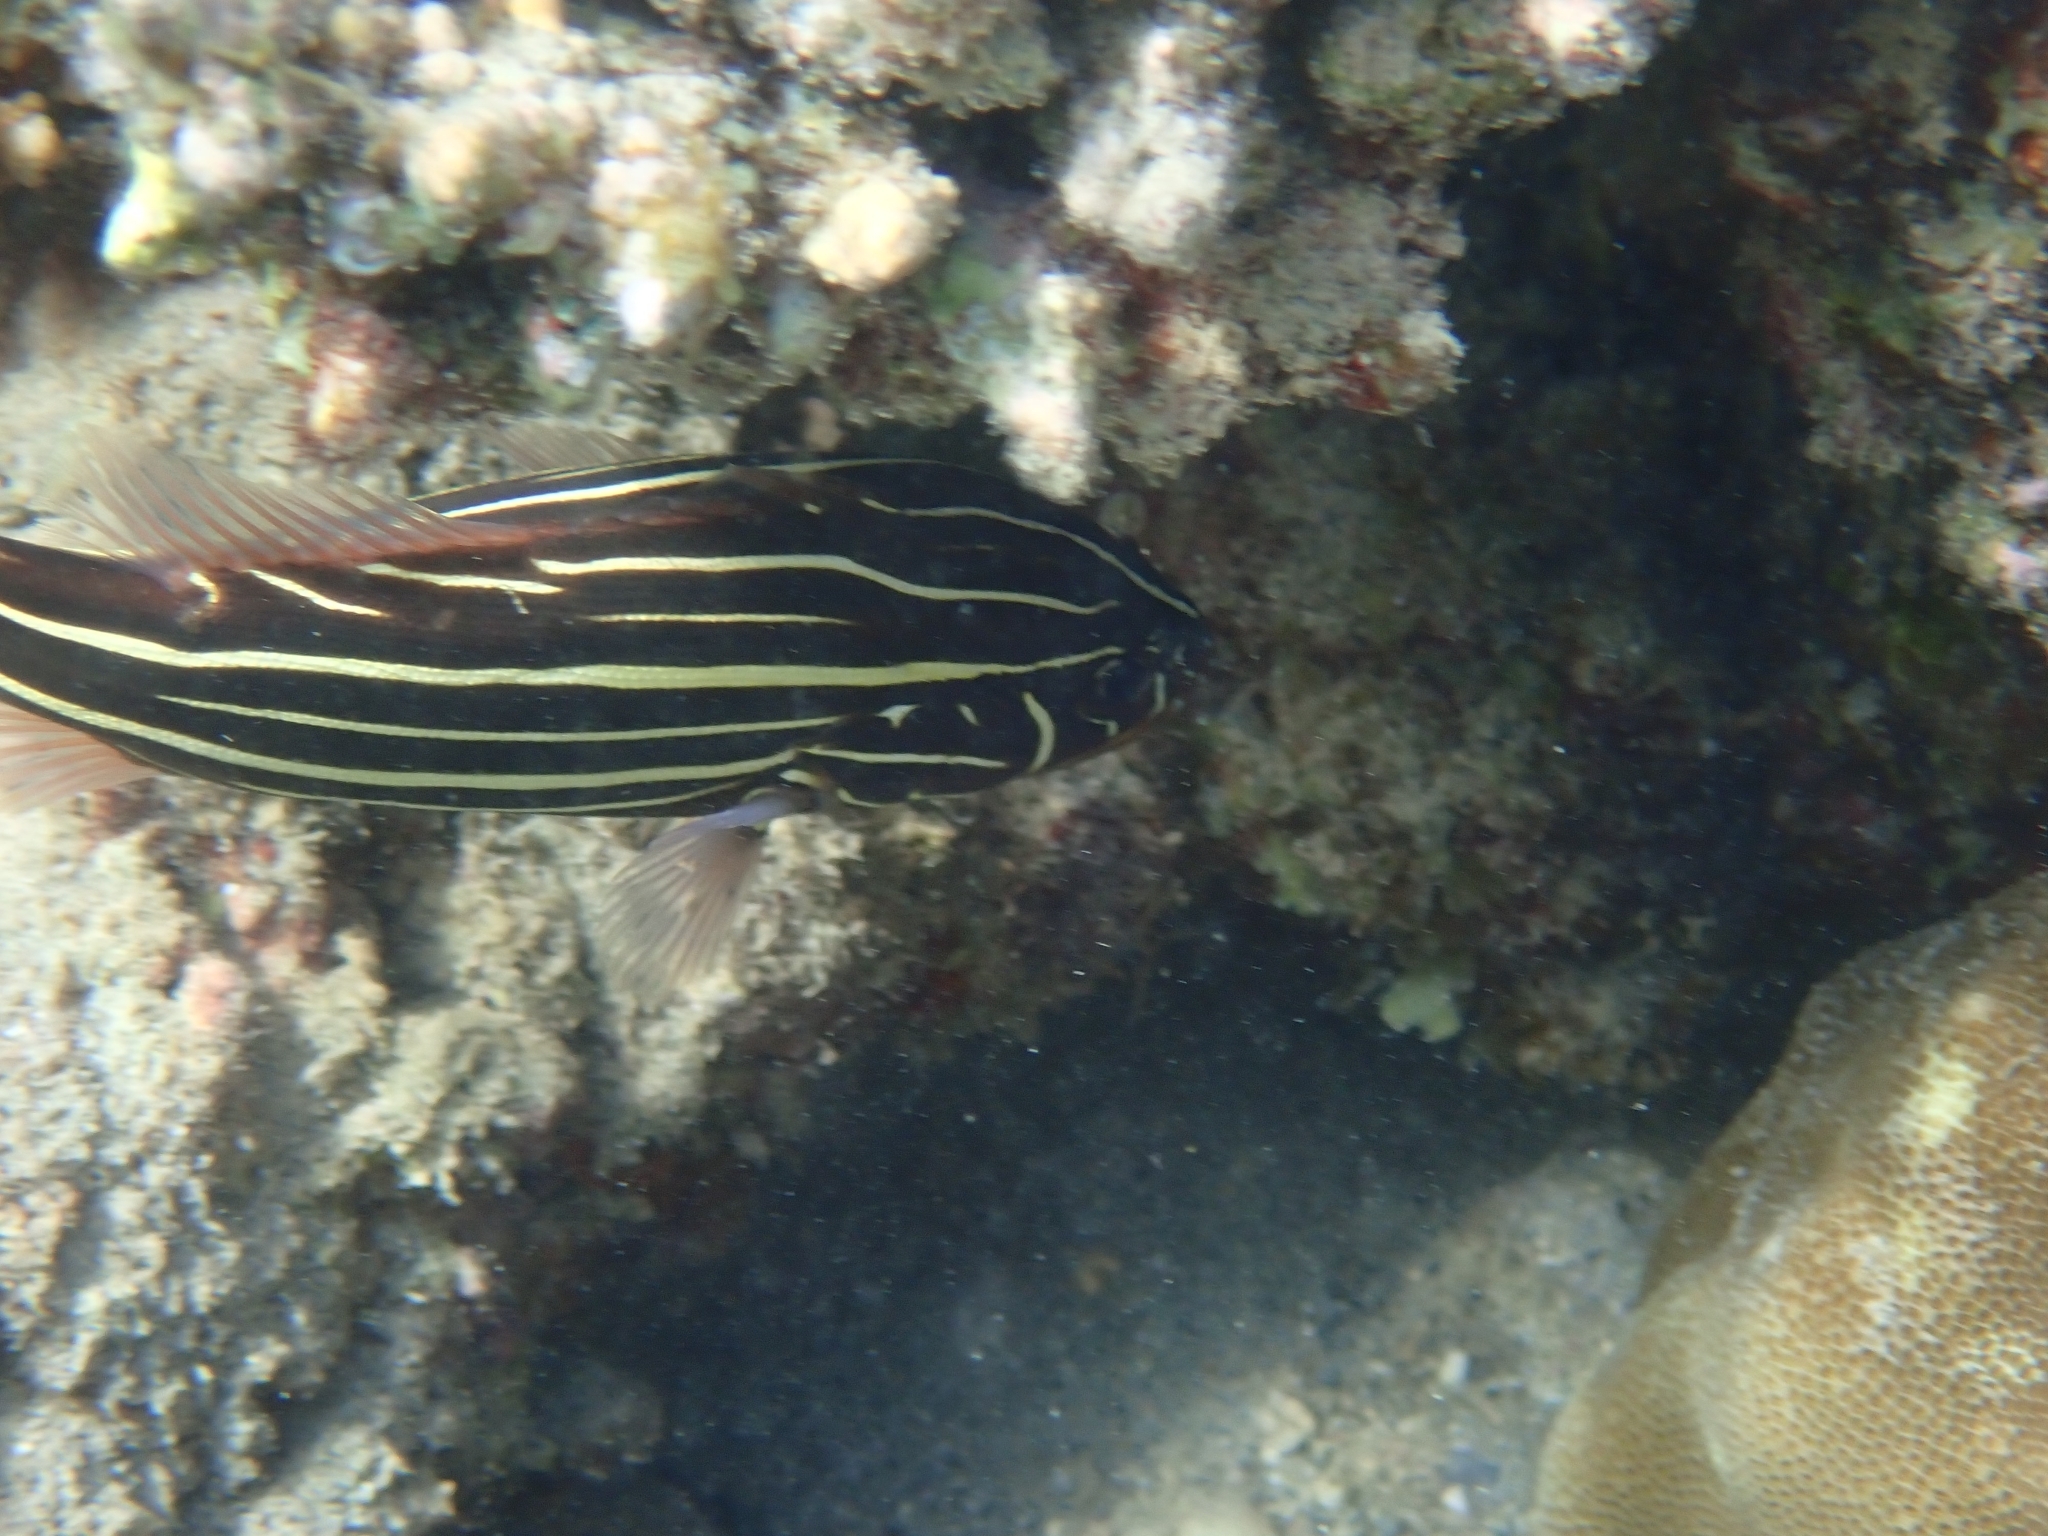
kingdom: Animalia
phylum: Chordata
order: Perciformes
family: Serranidae
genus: Grammistes
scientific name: Grammistes sexlineatus
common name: Sixline soapfish
